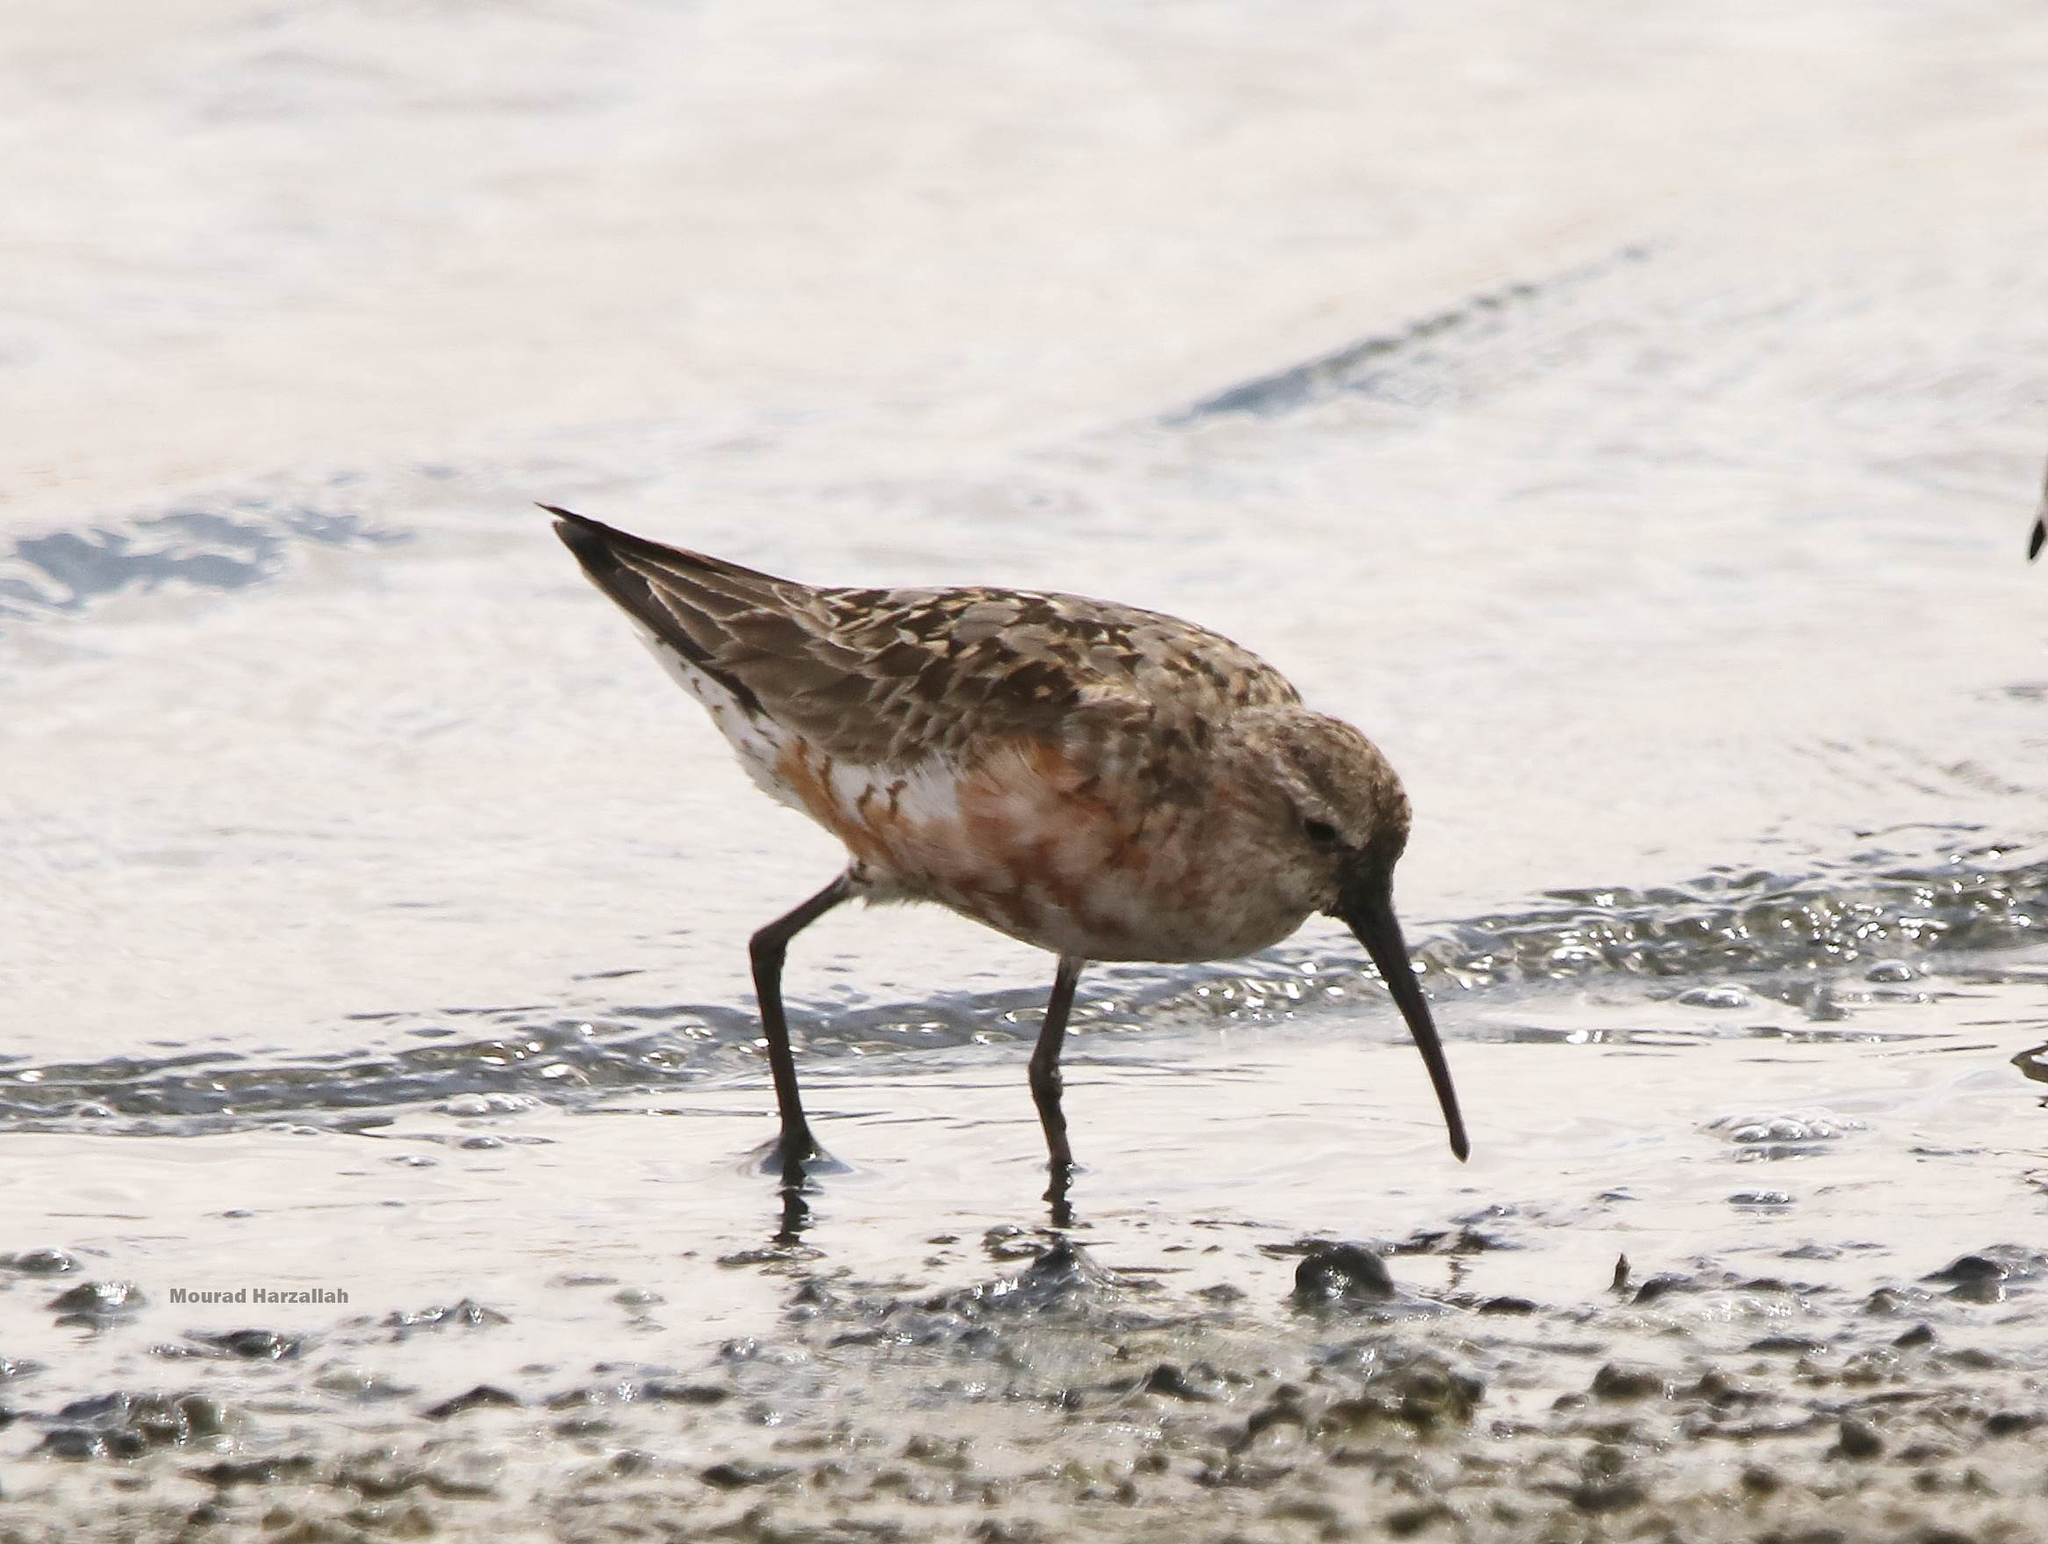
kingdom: Animalia
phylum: Chordata
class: Aves
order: Charadriiformes
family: Scolopacidae
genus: Calidris
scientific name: Calidris ferruginea
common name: Curlew sandpiper
